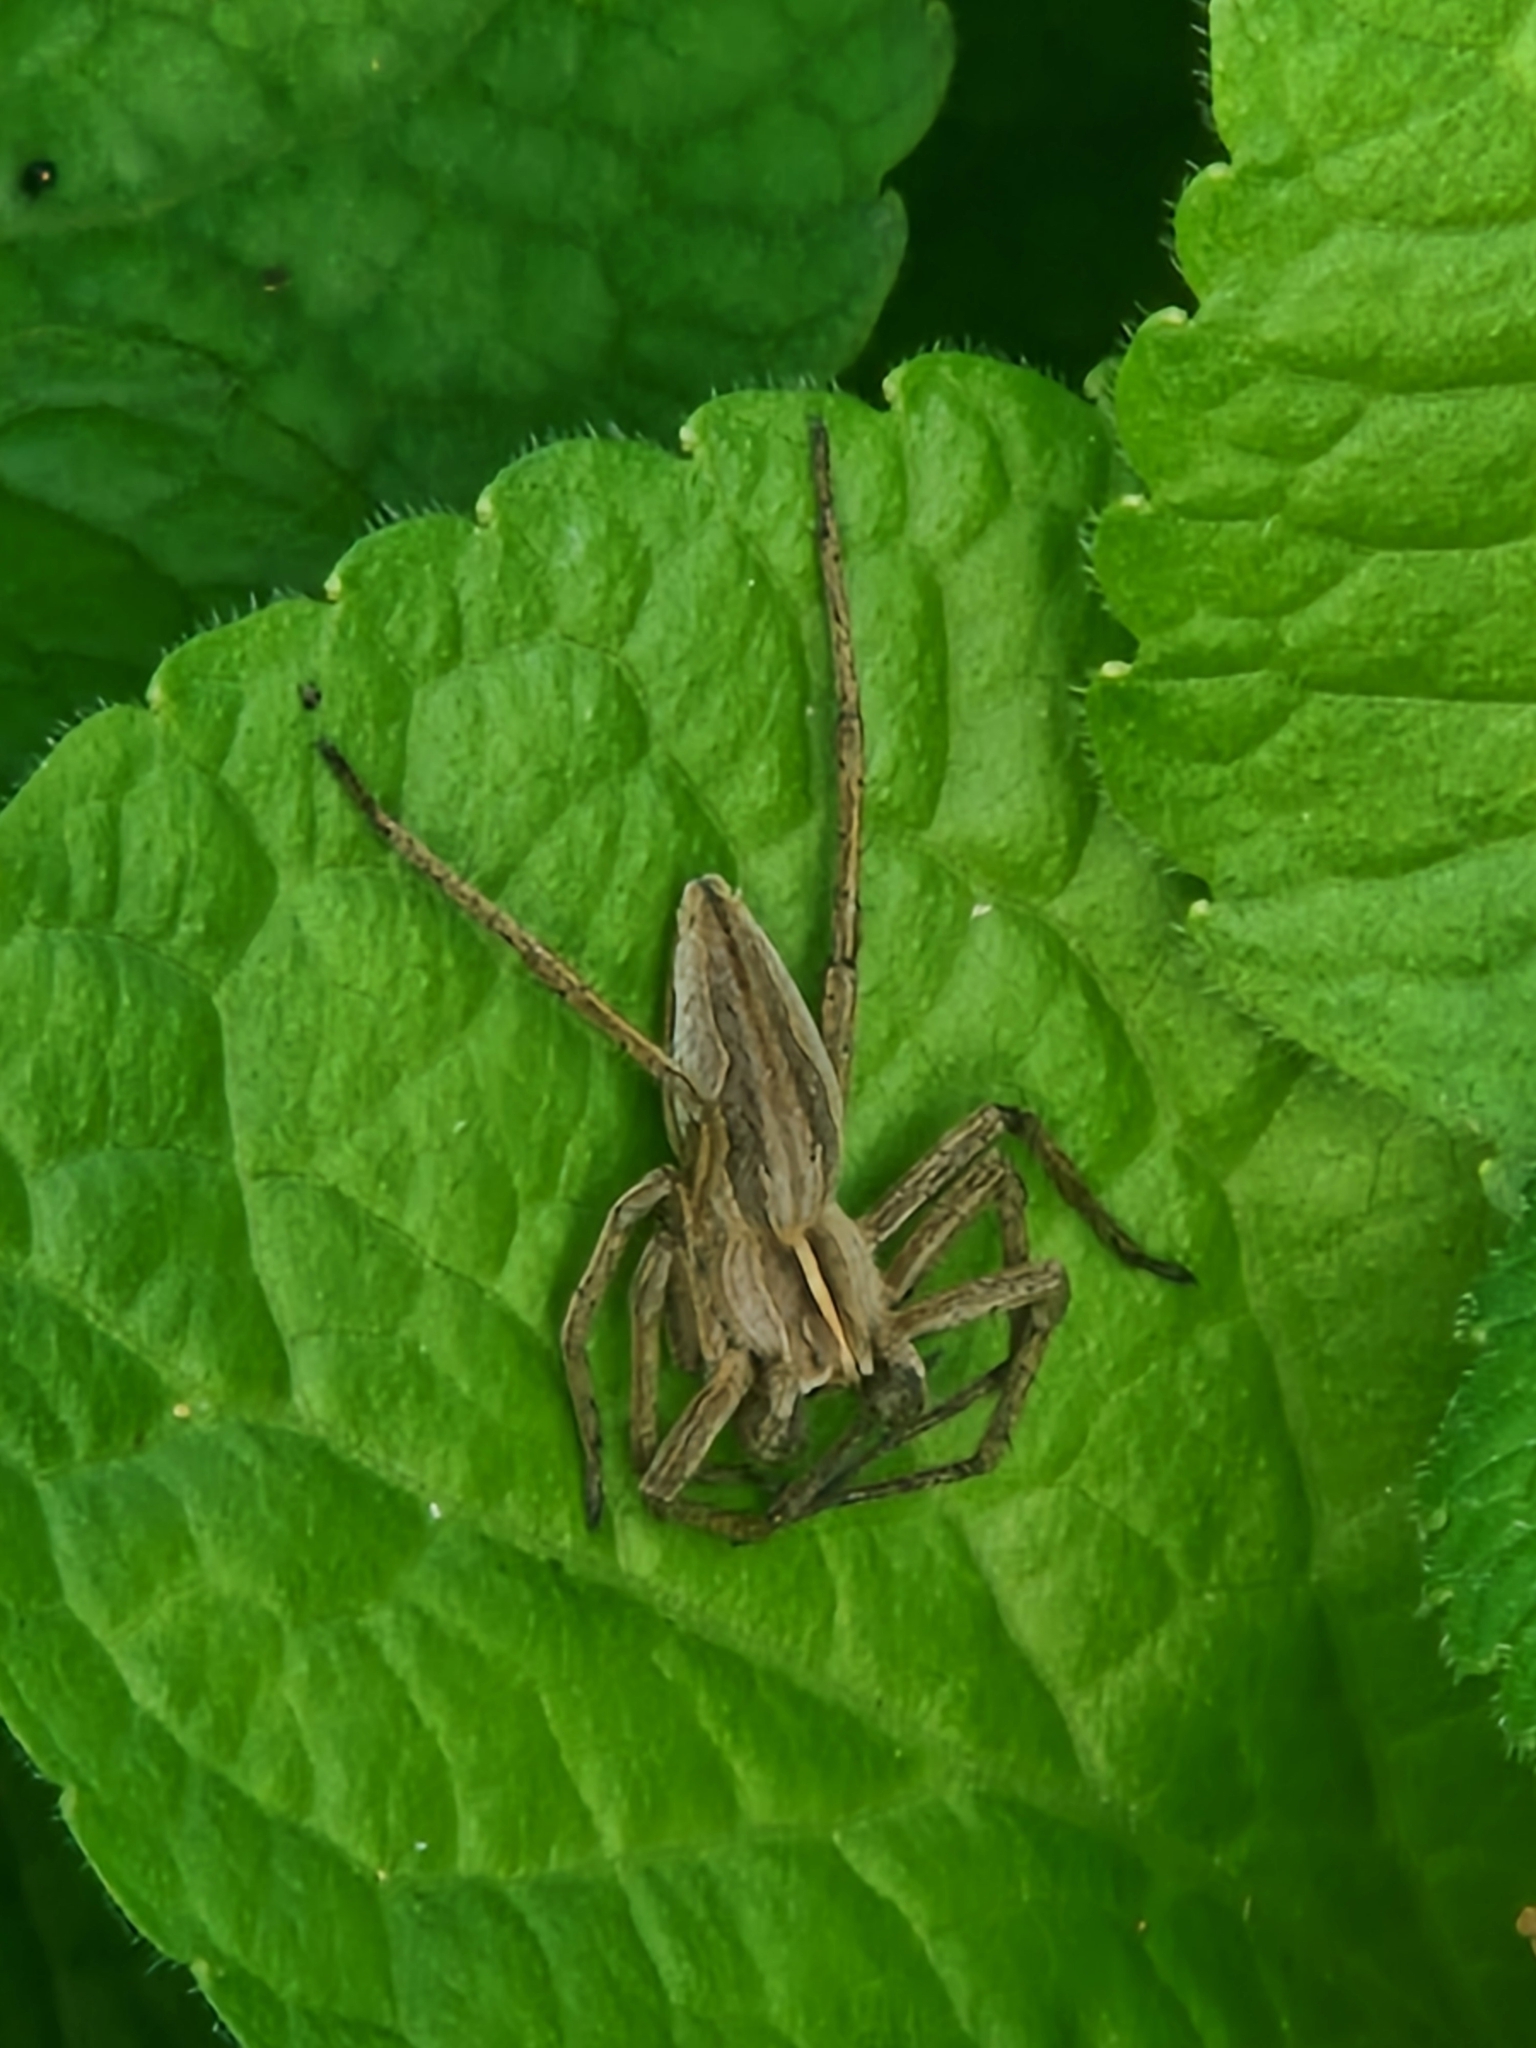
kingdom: Animalia
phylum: Arthropoda
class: Arachnida
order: Araneae
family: Pisauridae
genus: Pisaura
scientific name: Pisaura mirabilis
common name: Tent spider
